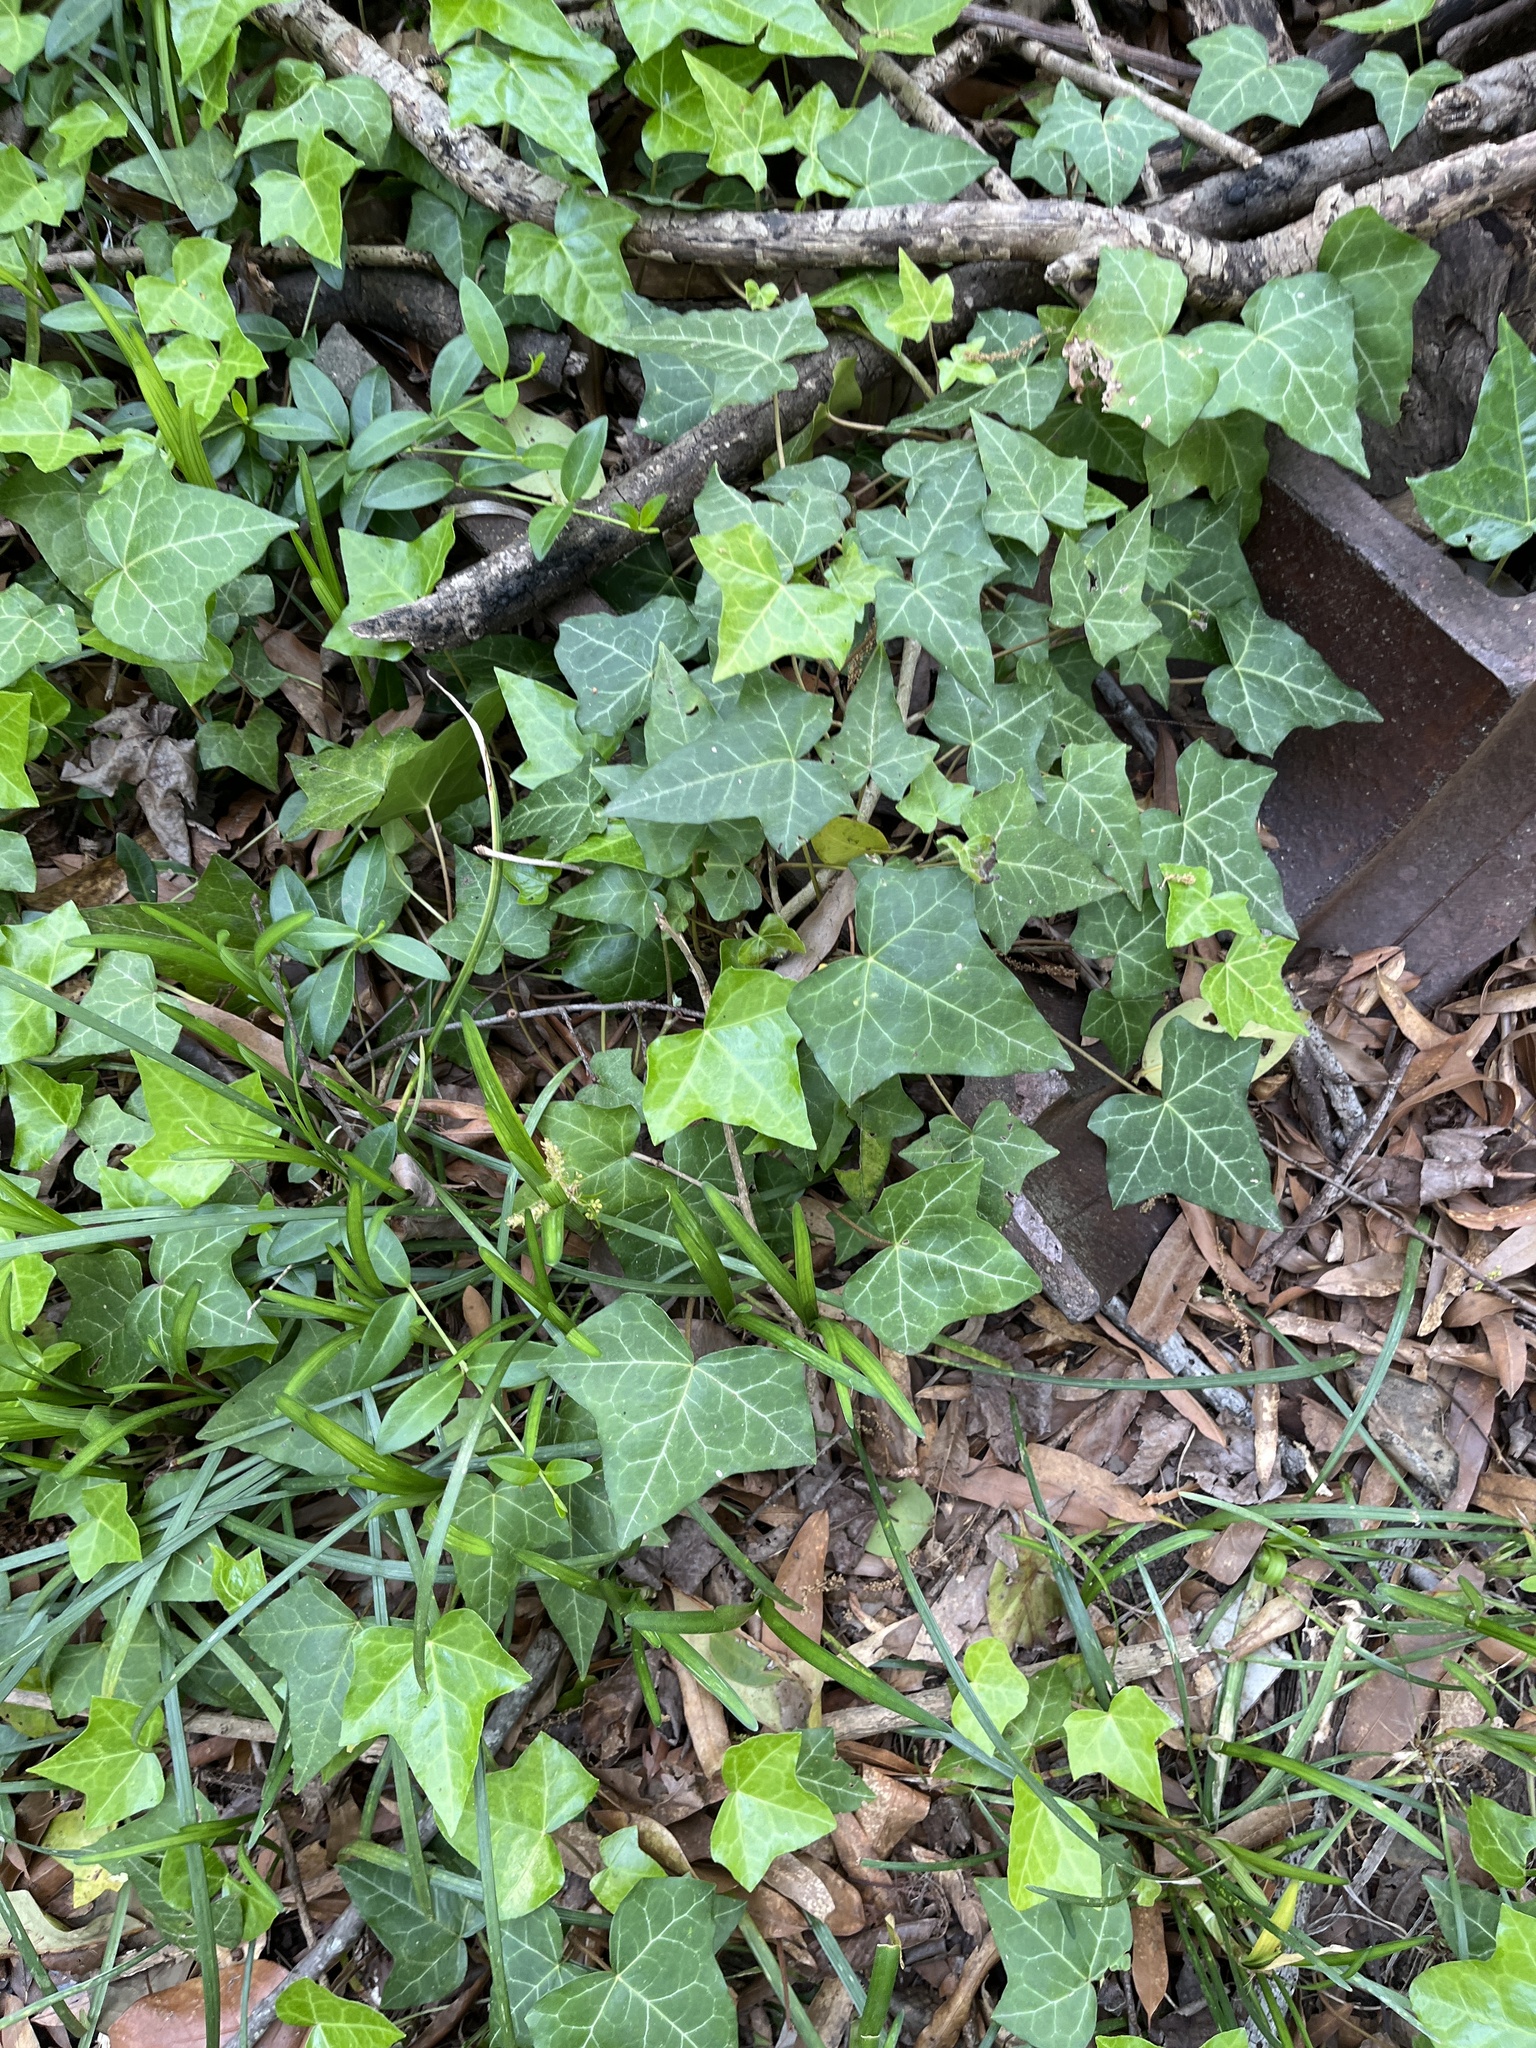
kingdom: Plantae
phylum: Tracheophyta
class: Magnoliopsida
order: Apiales
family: Araliaceae
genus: Hedera
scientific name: Hedera helix
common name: Ivy
